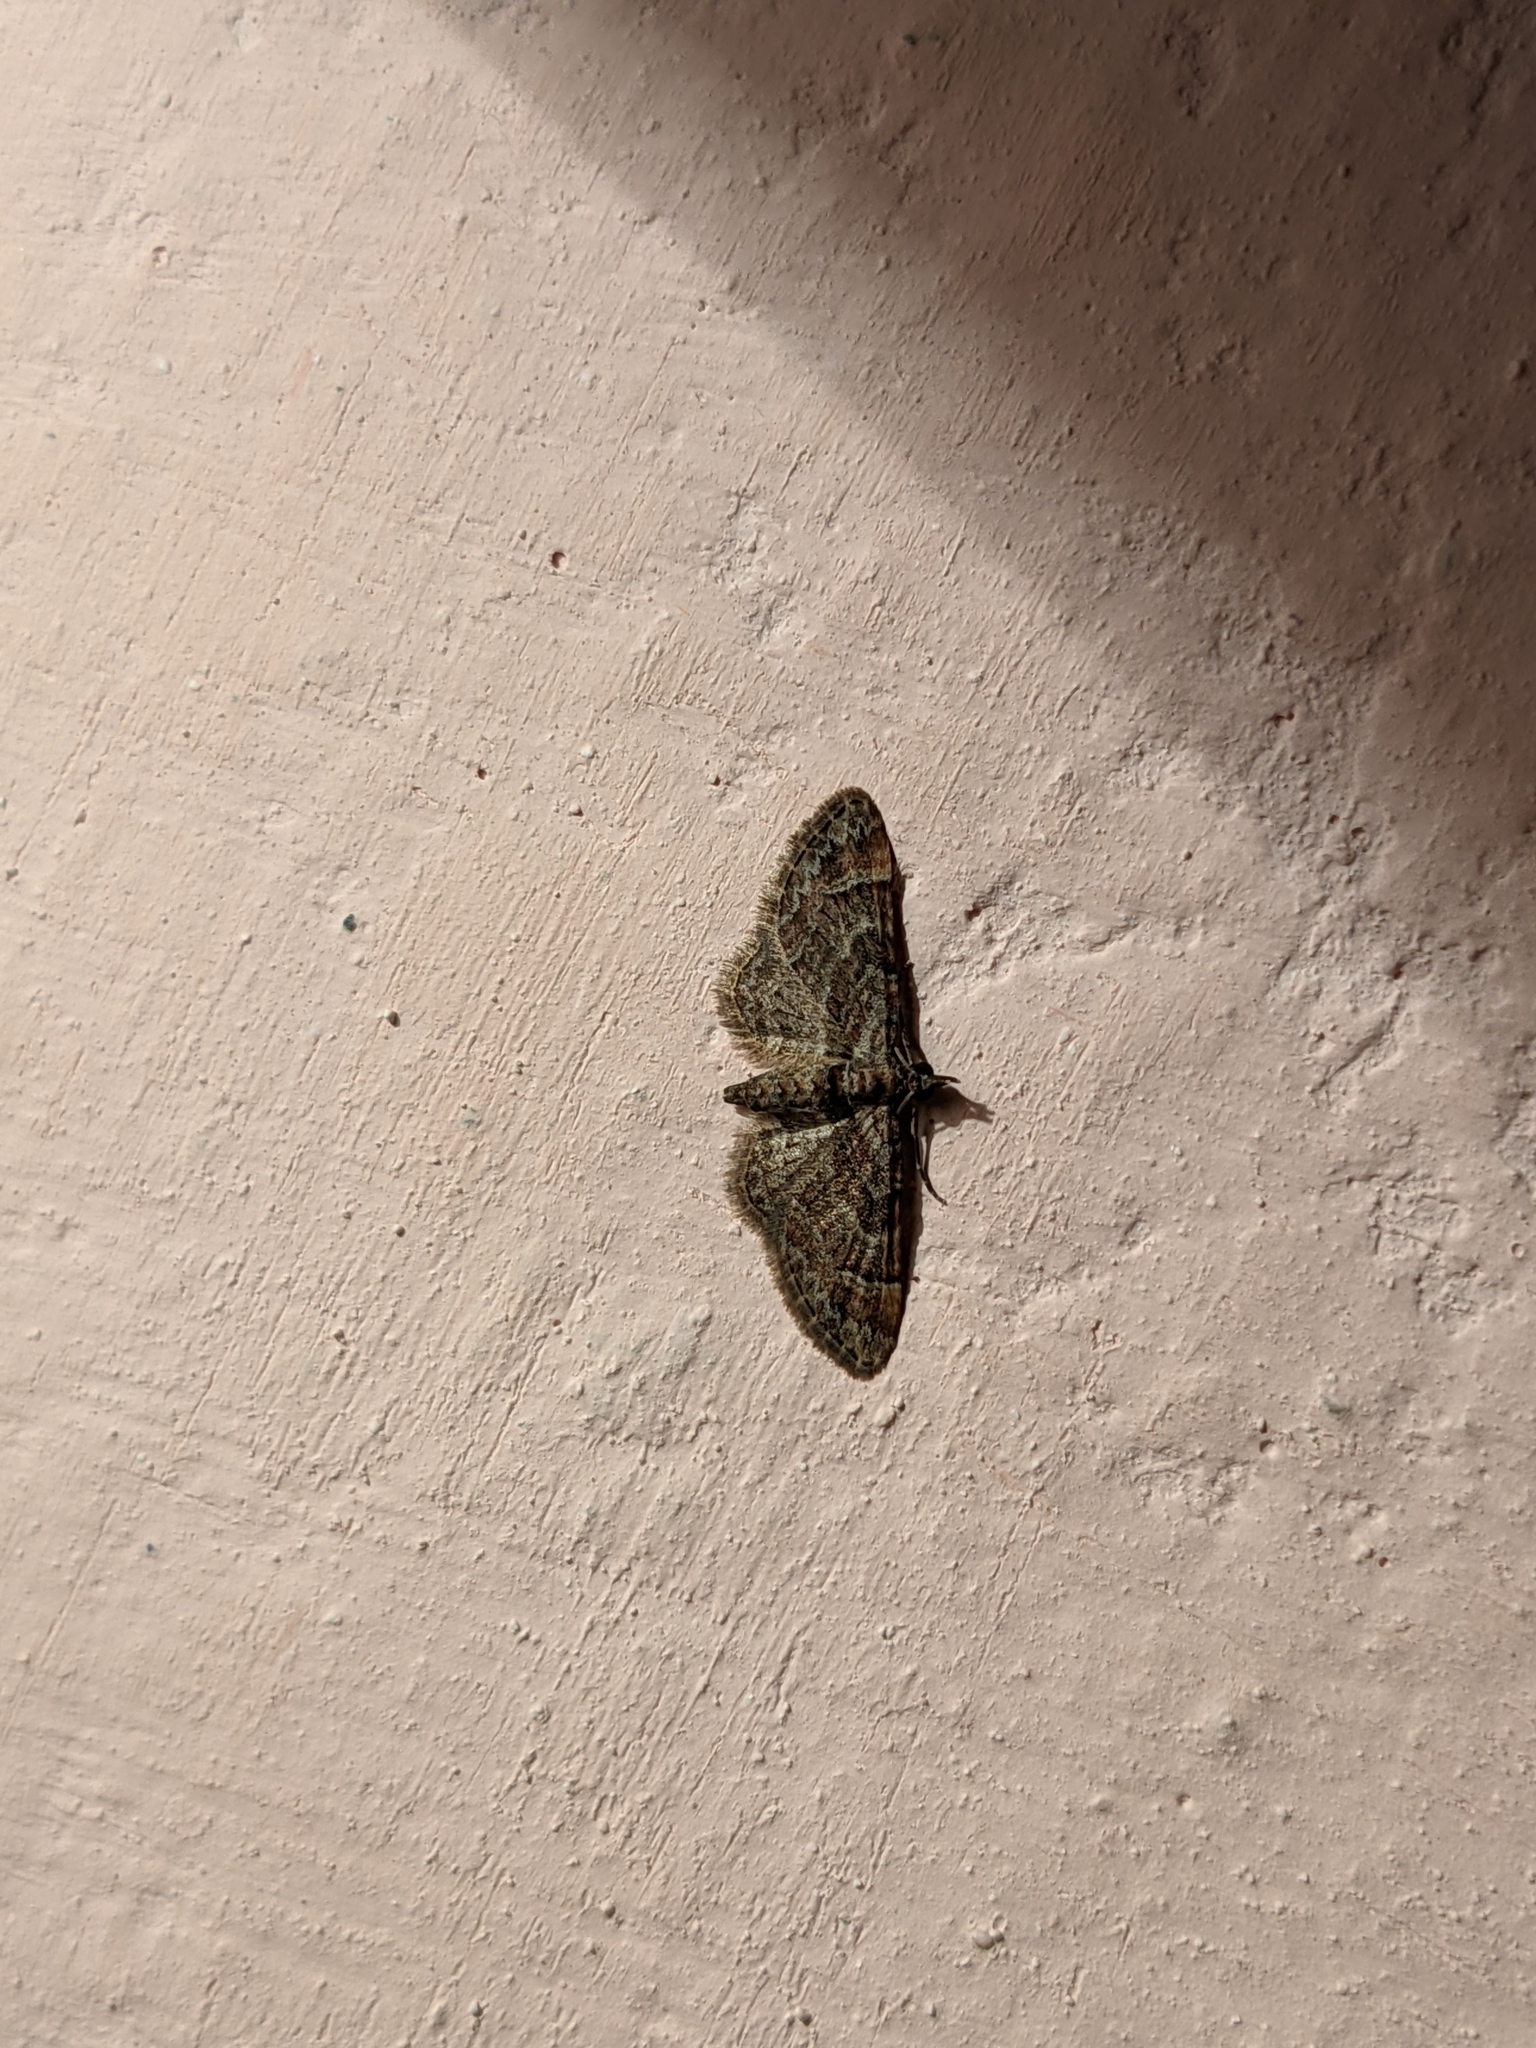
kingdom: Animalia
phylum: Arthropoda
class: Insecta
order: Lepidoptera
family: Geometridae
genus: Gymnoscelis
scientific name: Gymnoscelis rufifasciata
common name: Double-striped pug
